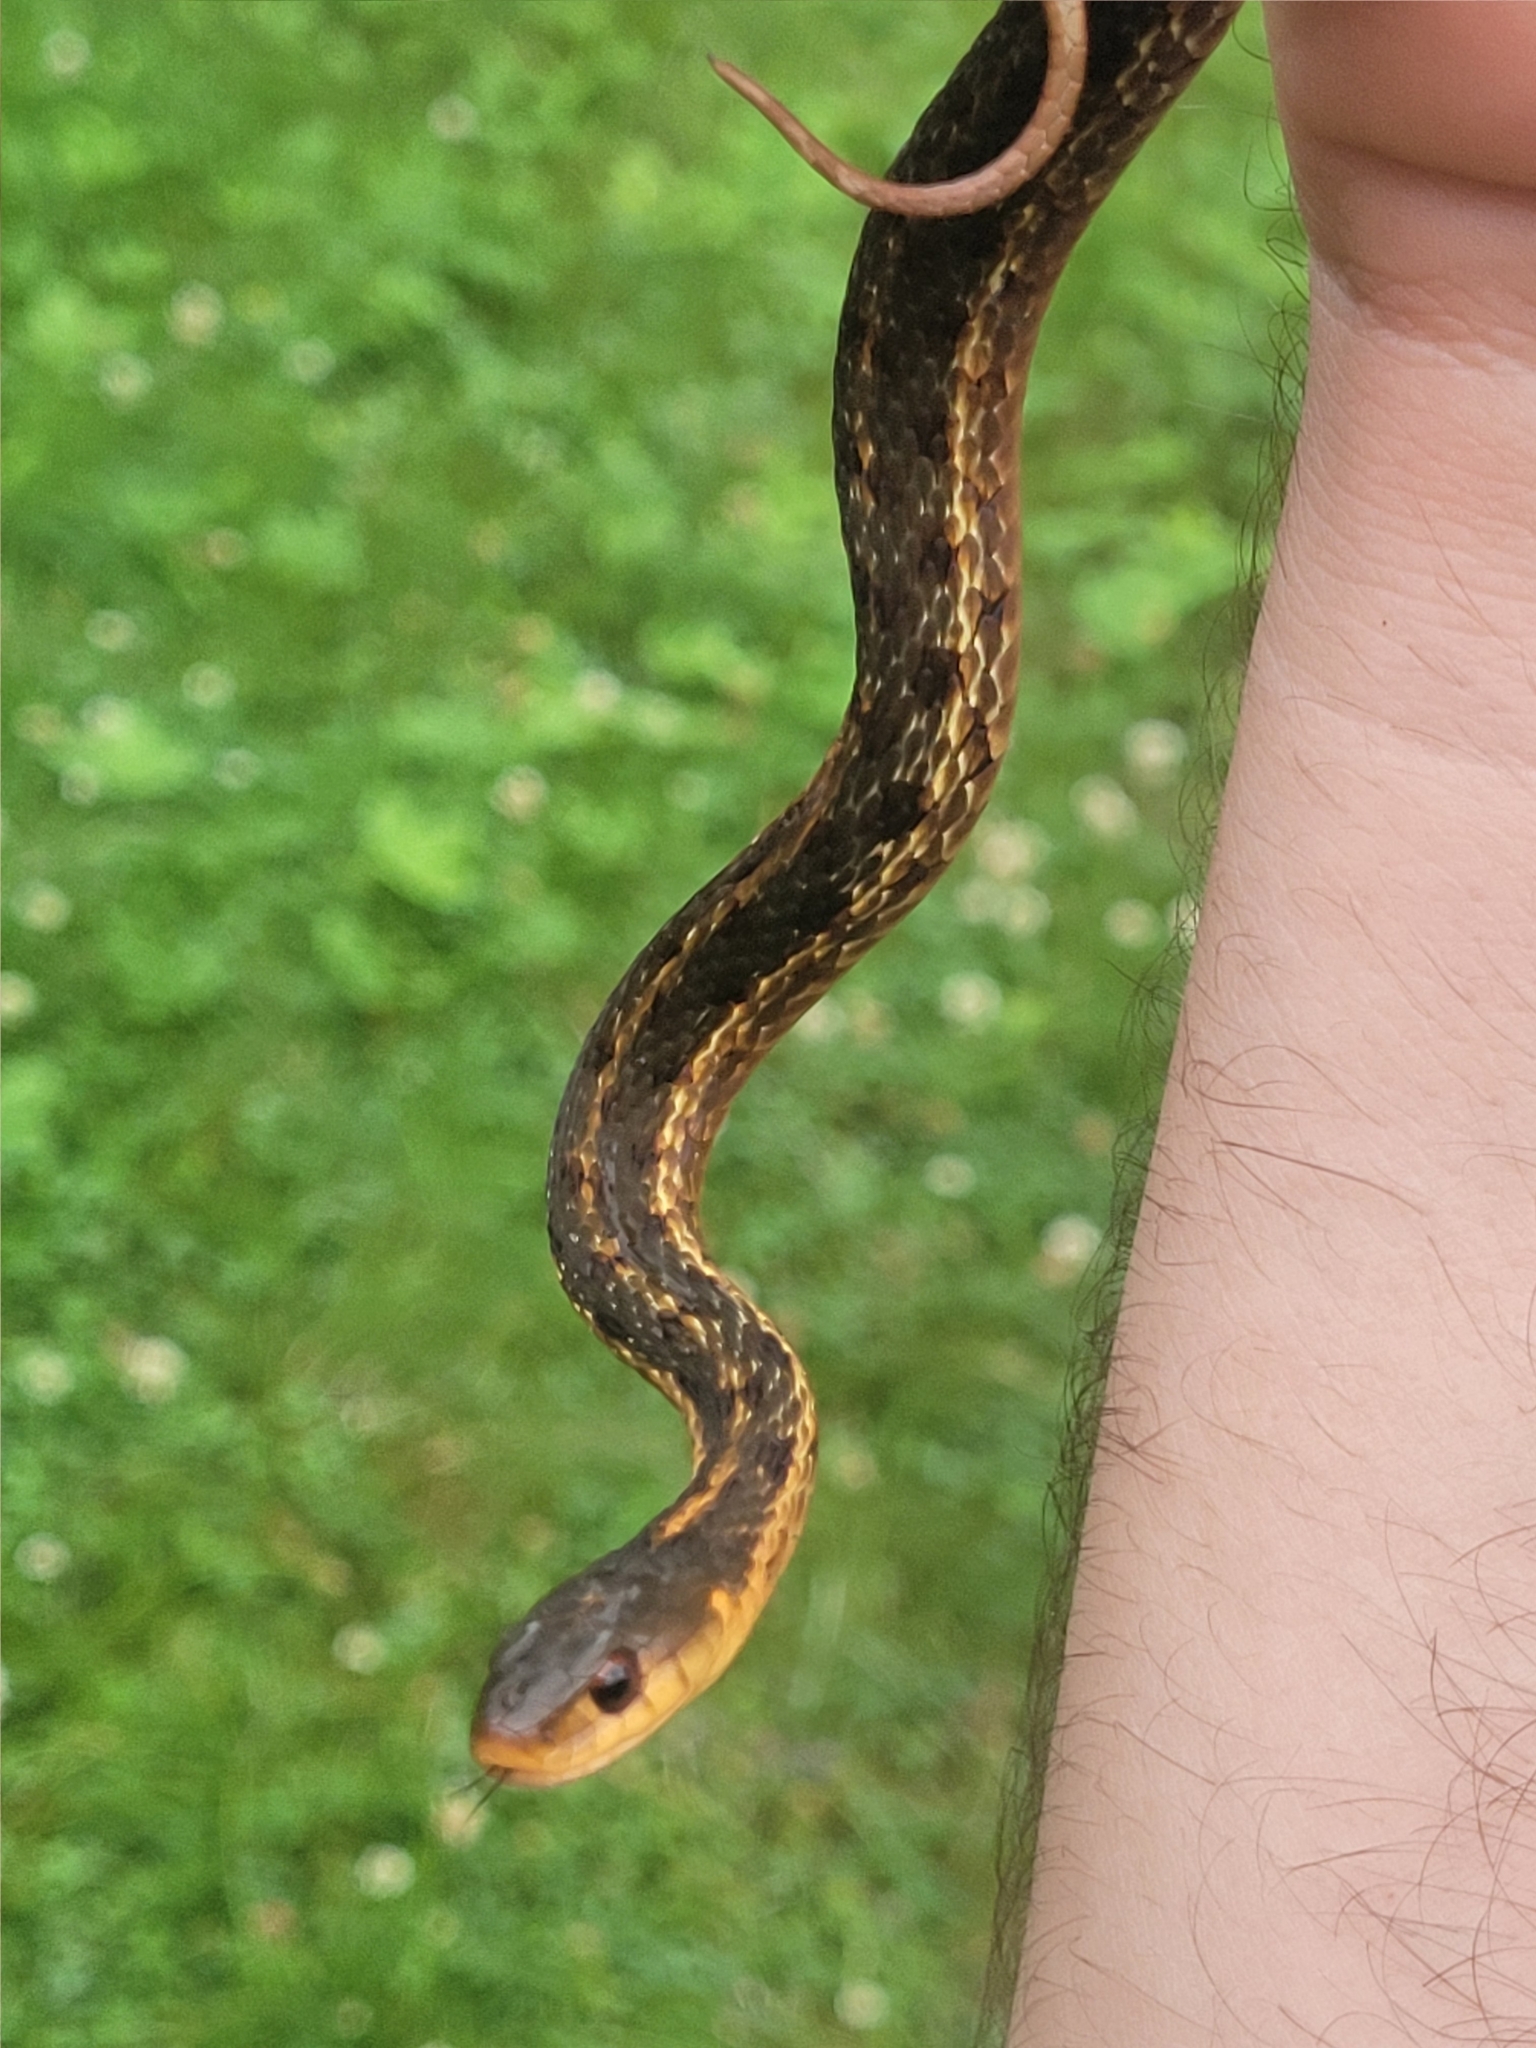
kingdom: Animalia
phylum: Chordata
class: Squamata
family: Colubridae
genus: Thamnophis
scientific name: Thamnophis sirtalis
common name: Common garter snake
